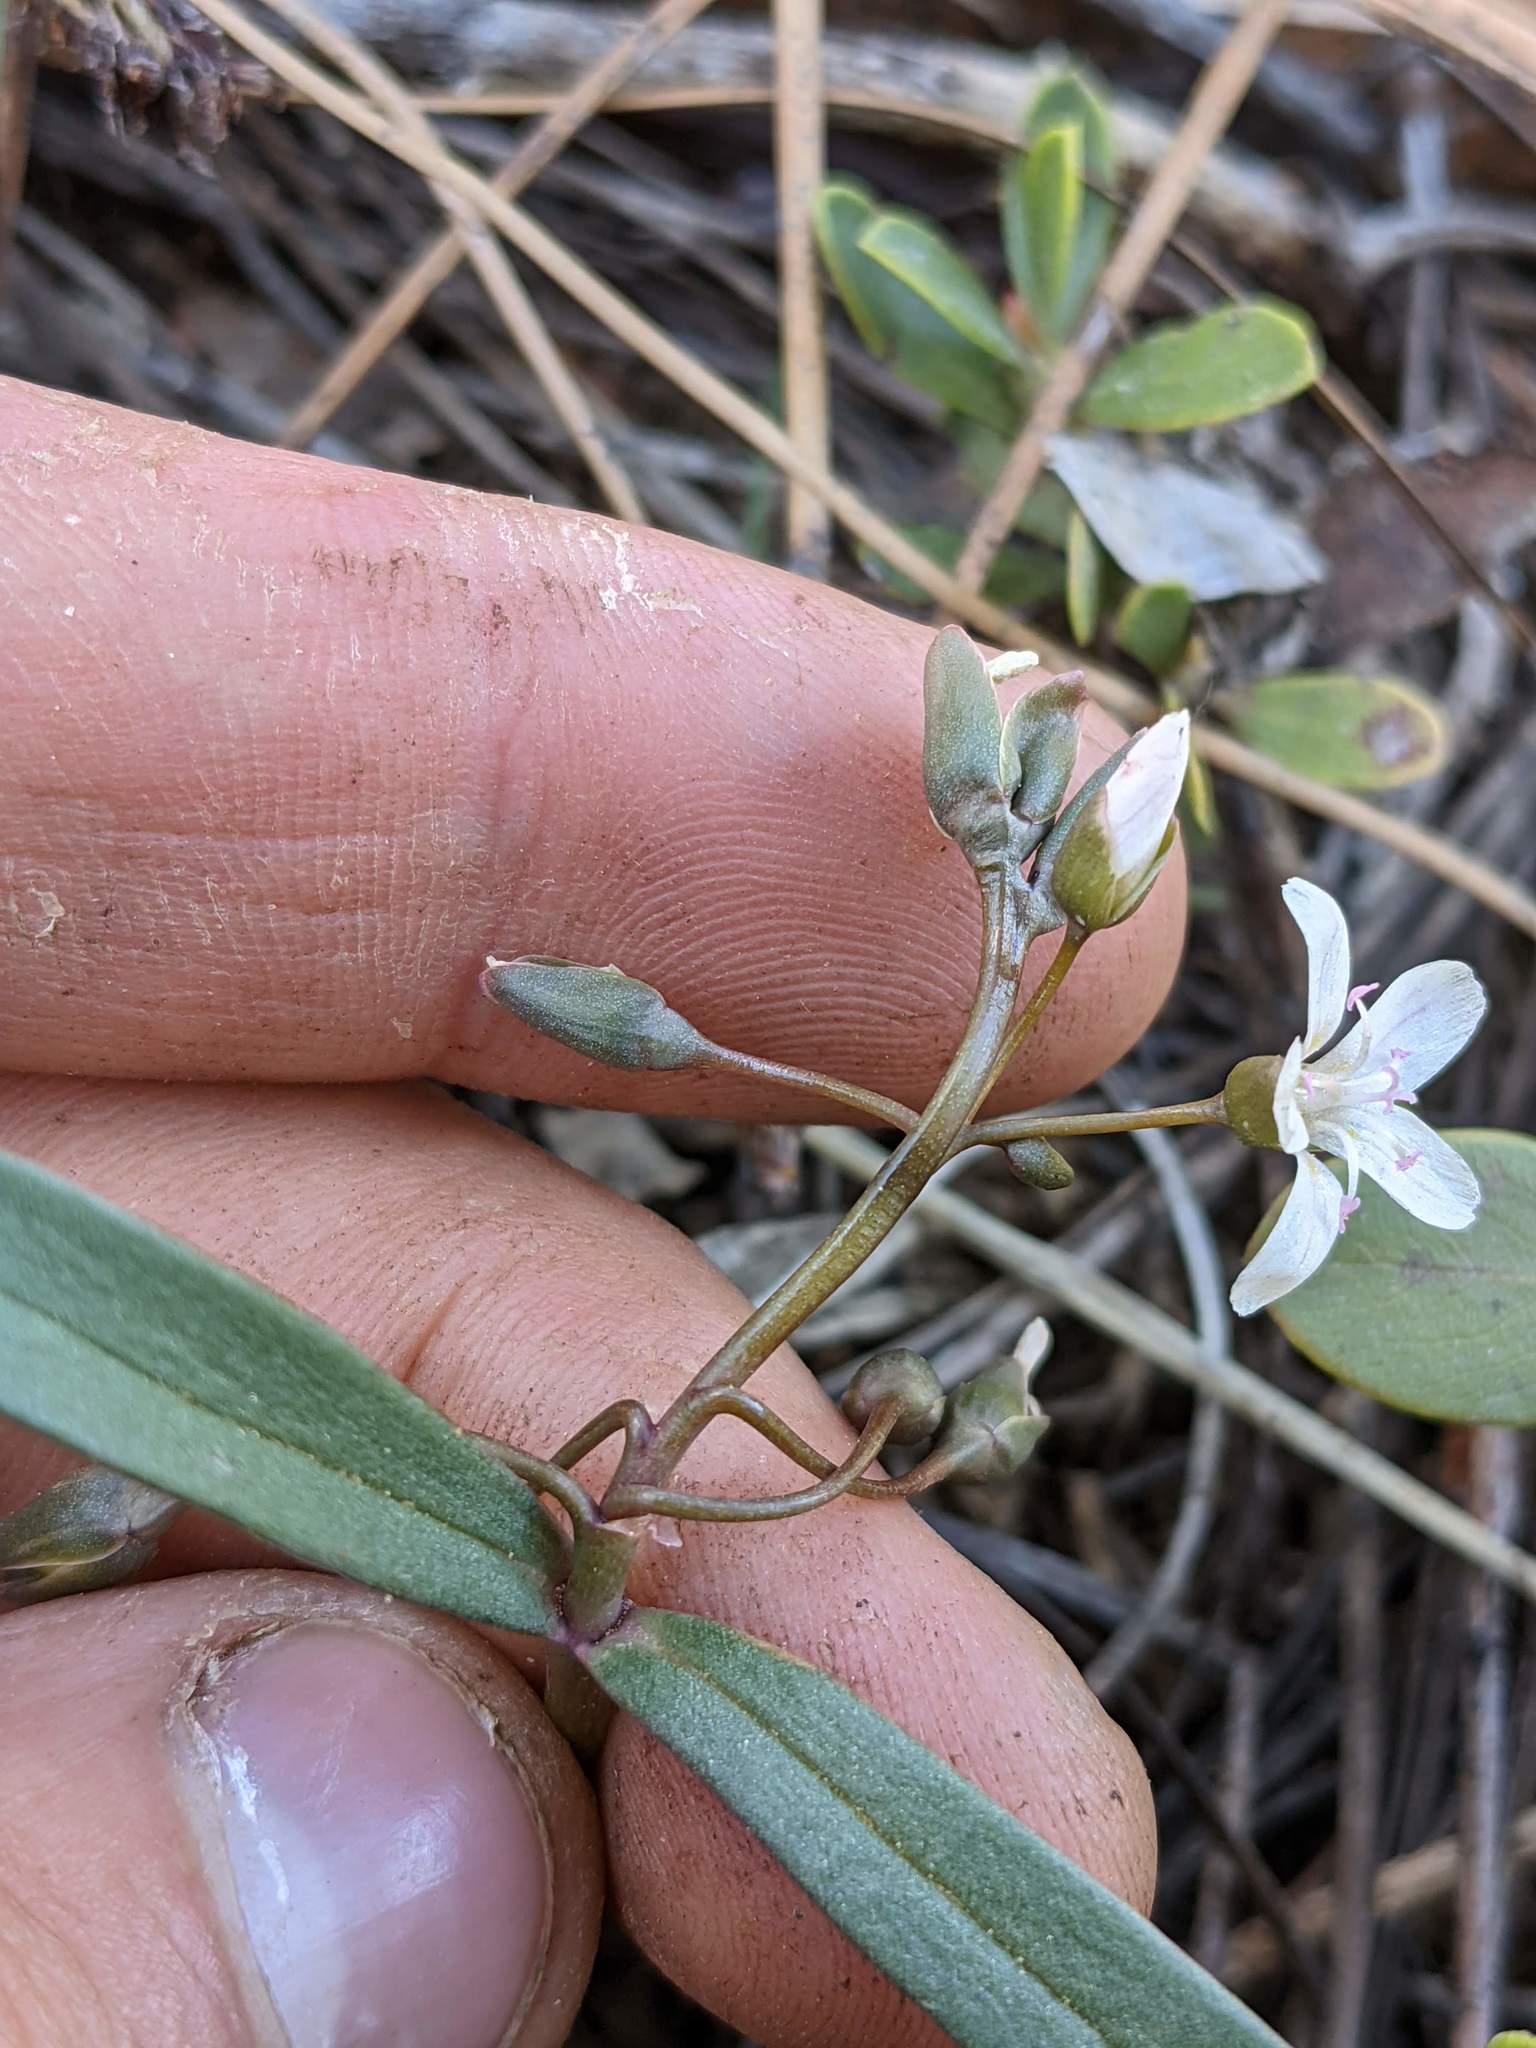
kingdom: Plantae
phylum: Tracheophyta
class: Magnoliopsida
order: Caryophyllales
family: Montiaceae
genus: Claytonia
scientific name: Claytonia serpenticola
